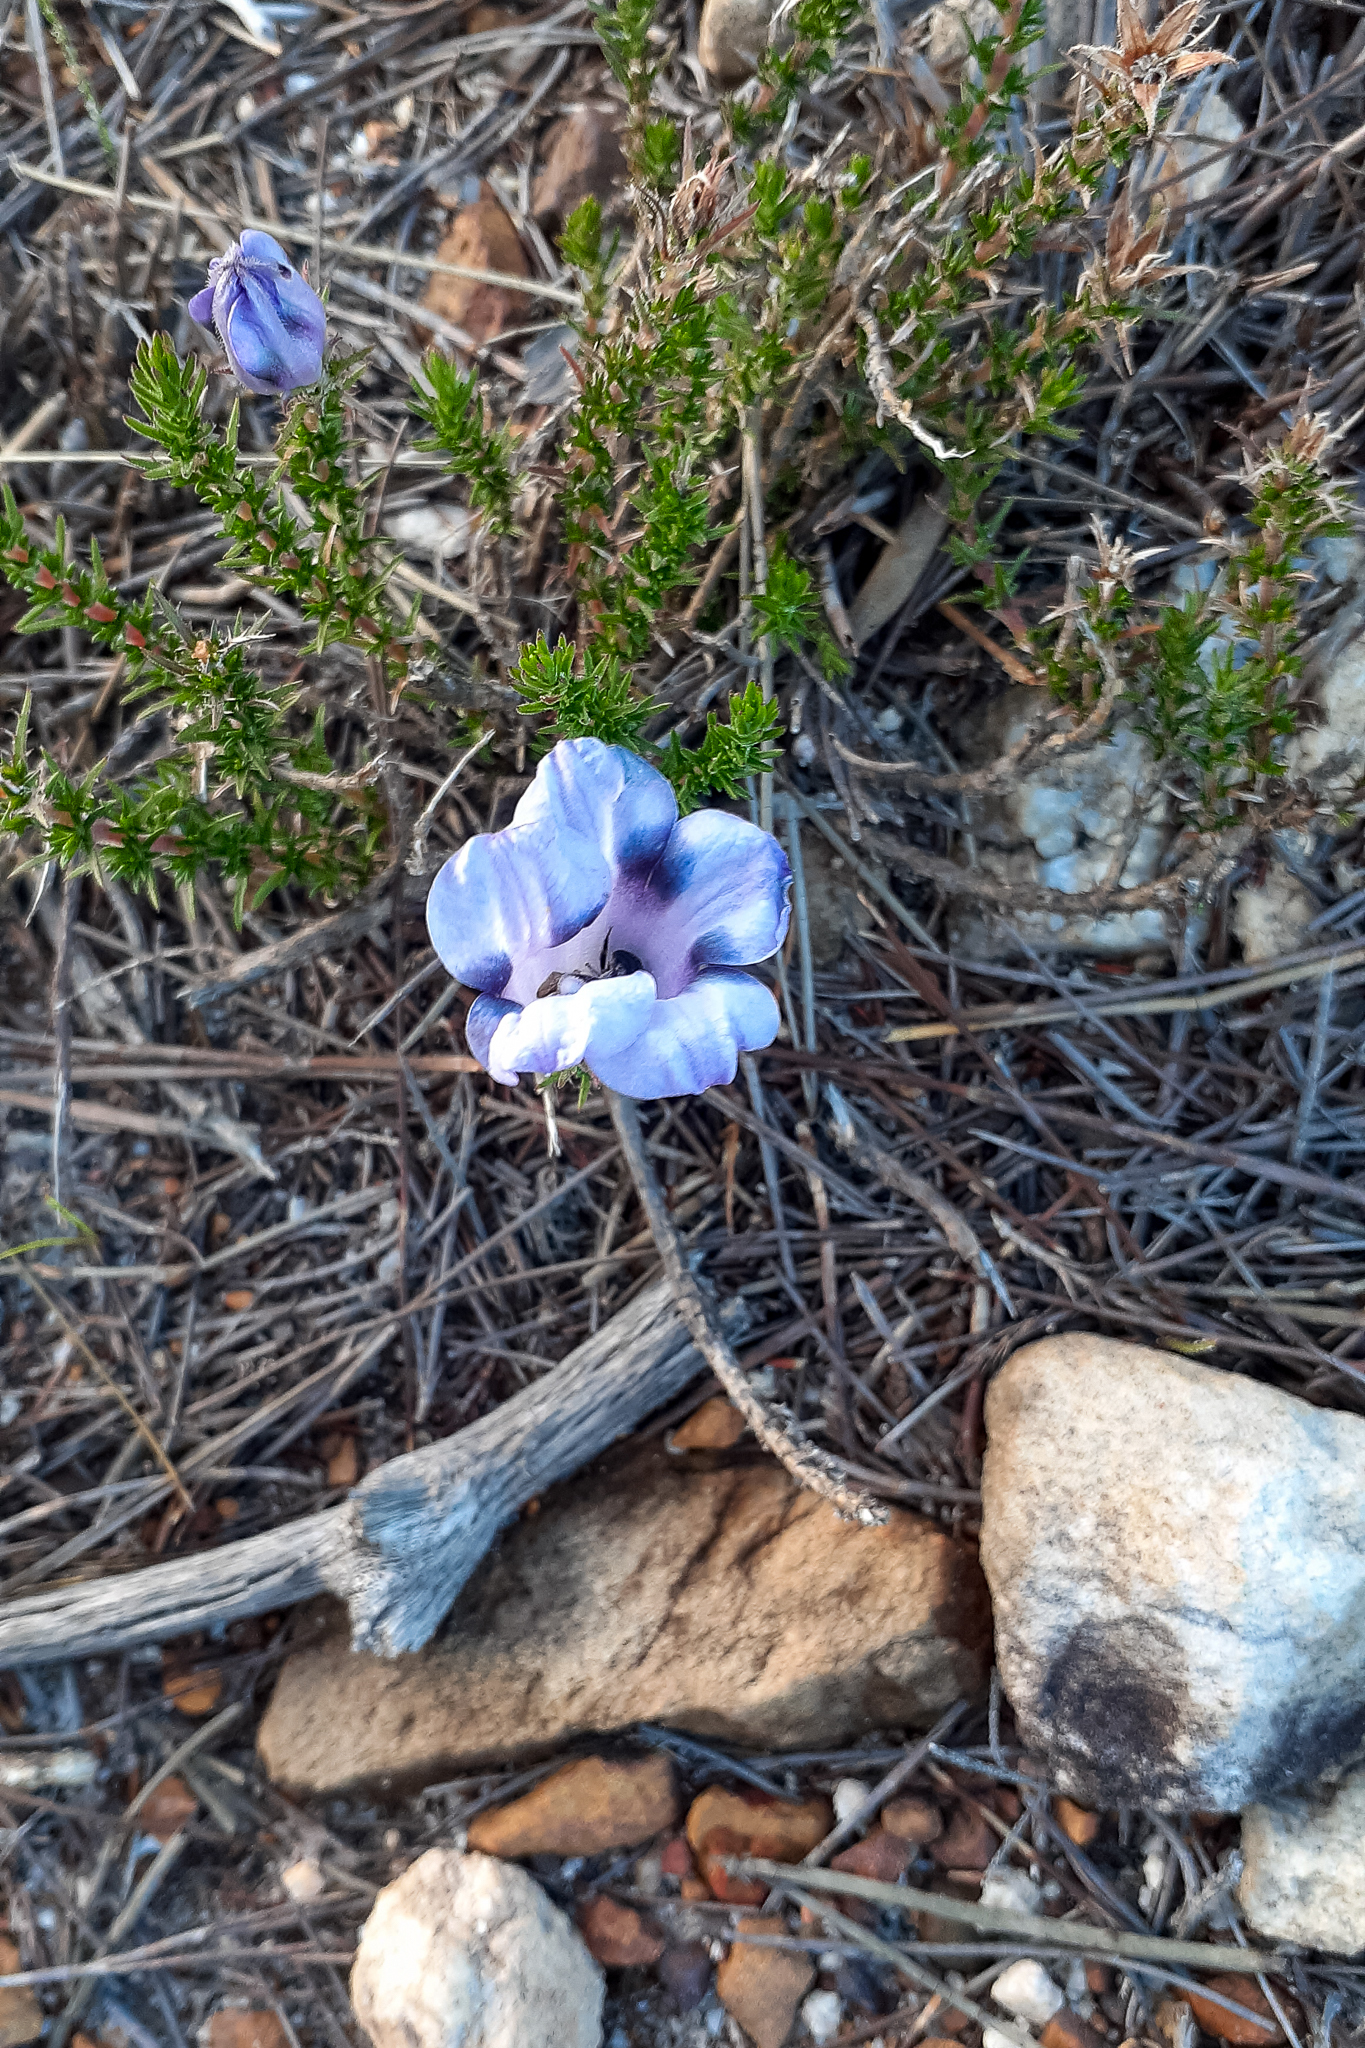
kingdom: Plantae
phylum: Tracheophyta
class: Magnoliopsida
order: Asterales
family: Campanulaceae
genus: Roella
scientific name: Roella maculata
